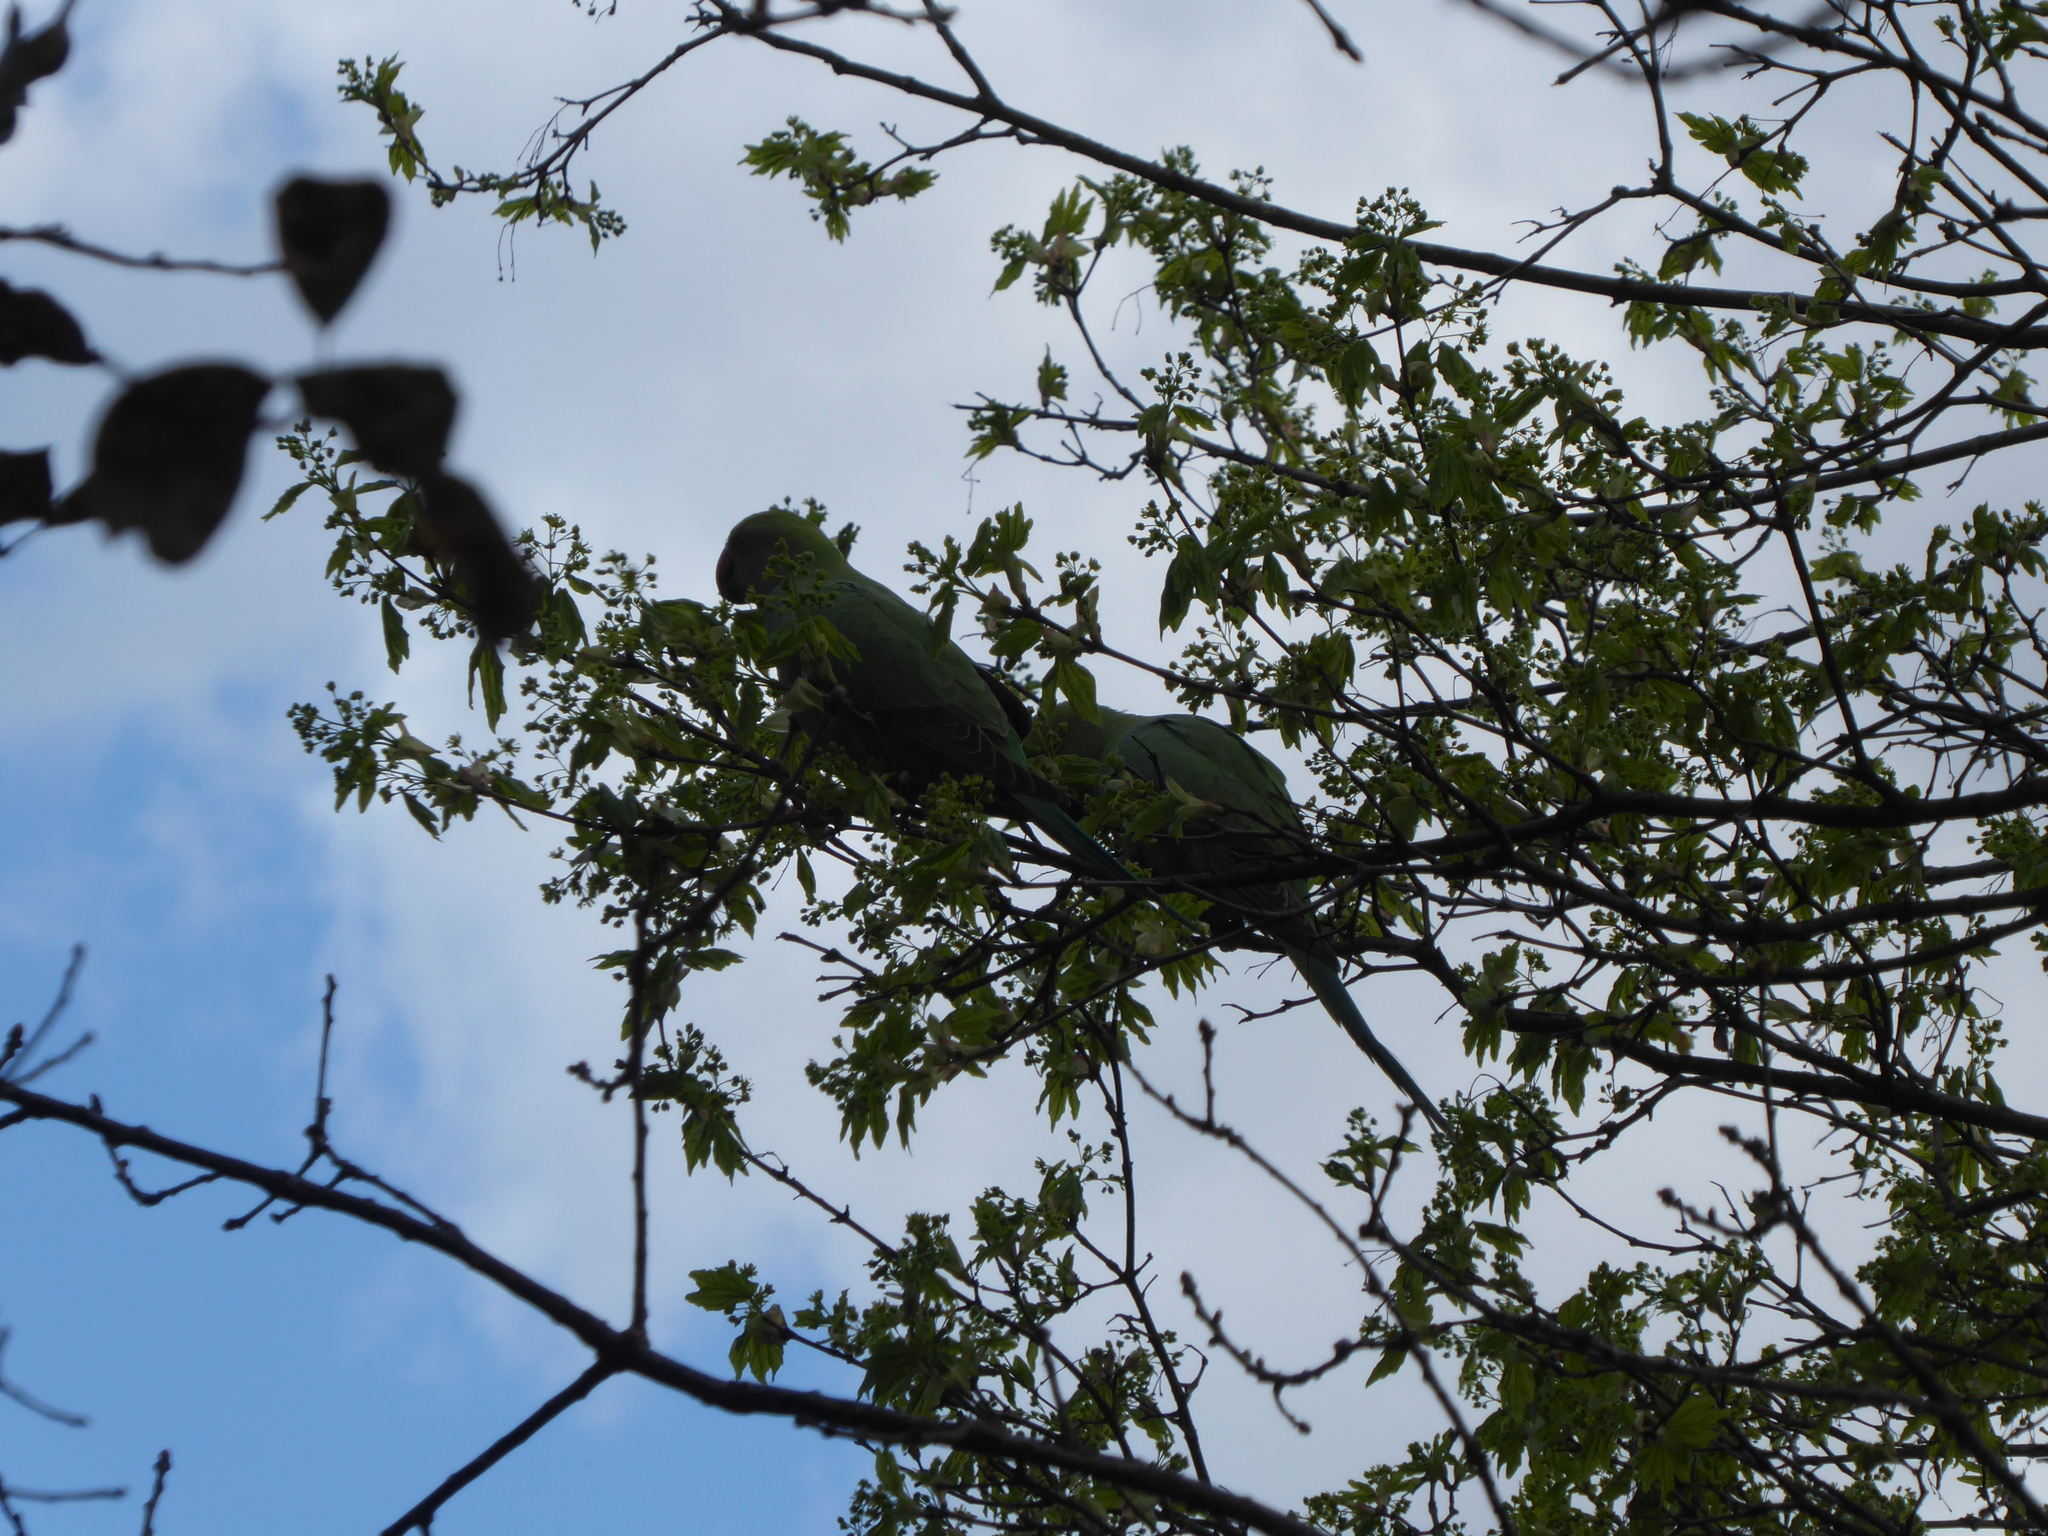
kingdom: Animalia
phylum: Chordata
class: Aves
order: Psittaciformes
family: Psittacidae
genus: Psittacula
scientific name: Psittacula krameri
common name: Rose-ringed parakeet
